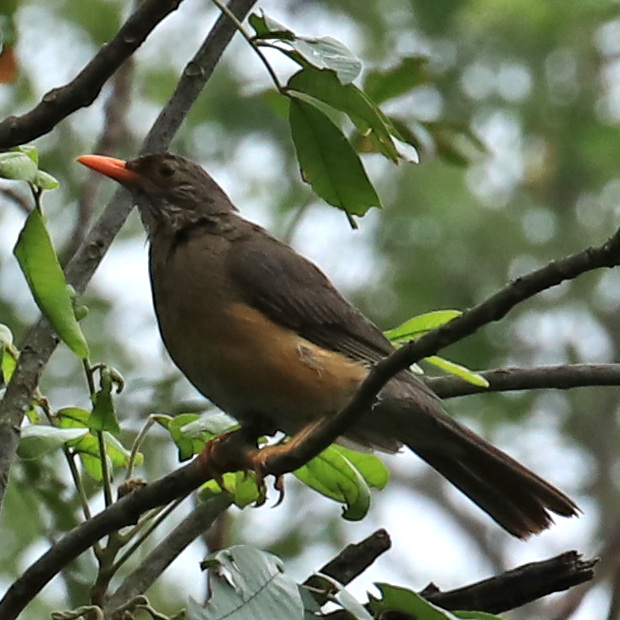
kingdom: Animalia
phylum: Chordata
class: Aves
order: Passeriformes
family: Turdidae
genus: Turdus
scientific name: Turdus libonyana
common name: Kurrichane thrush
